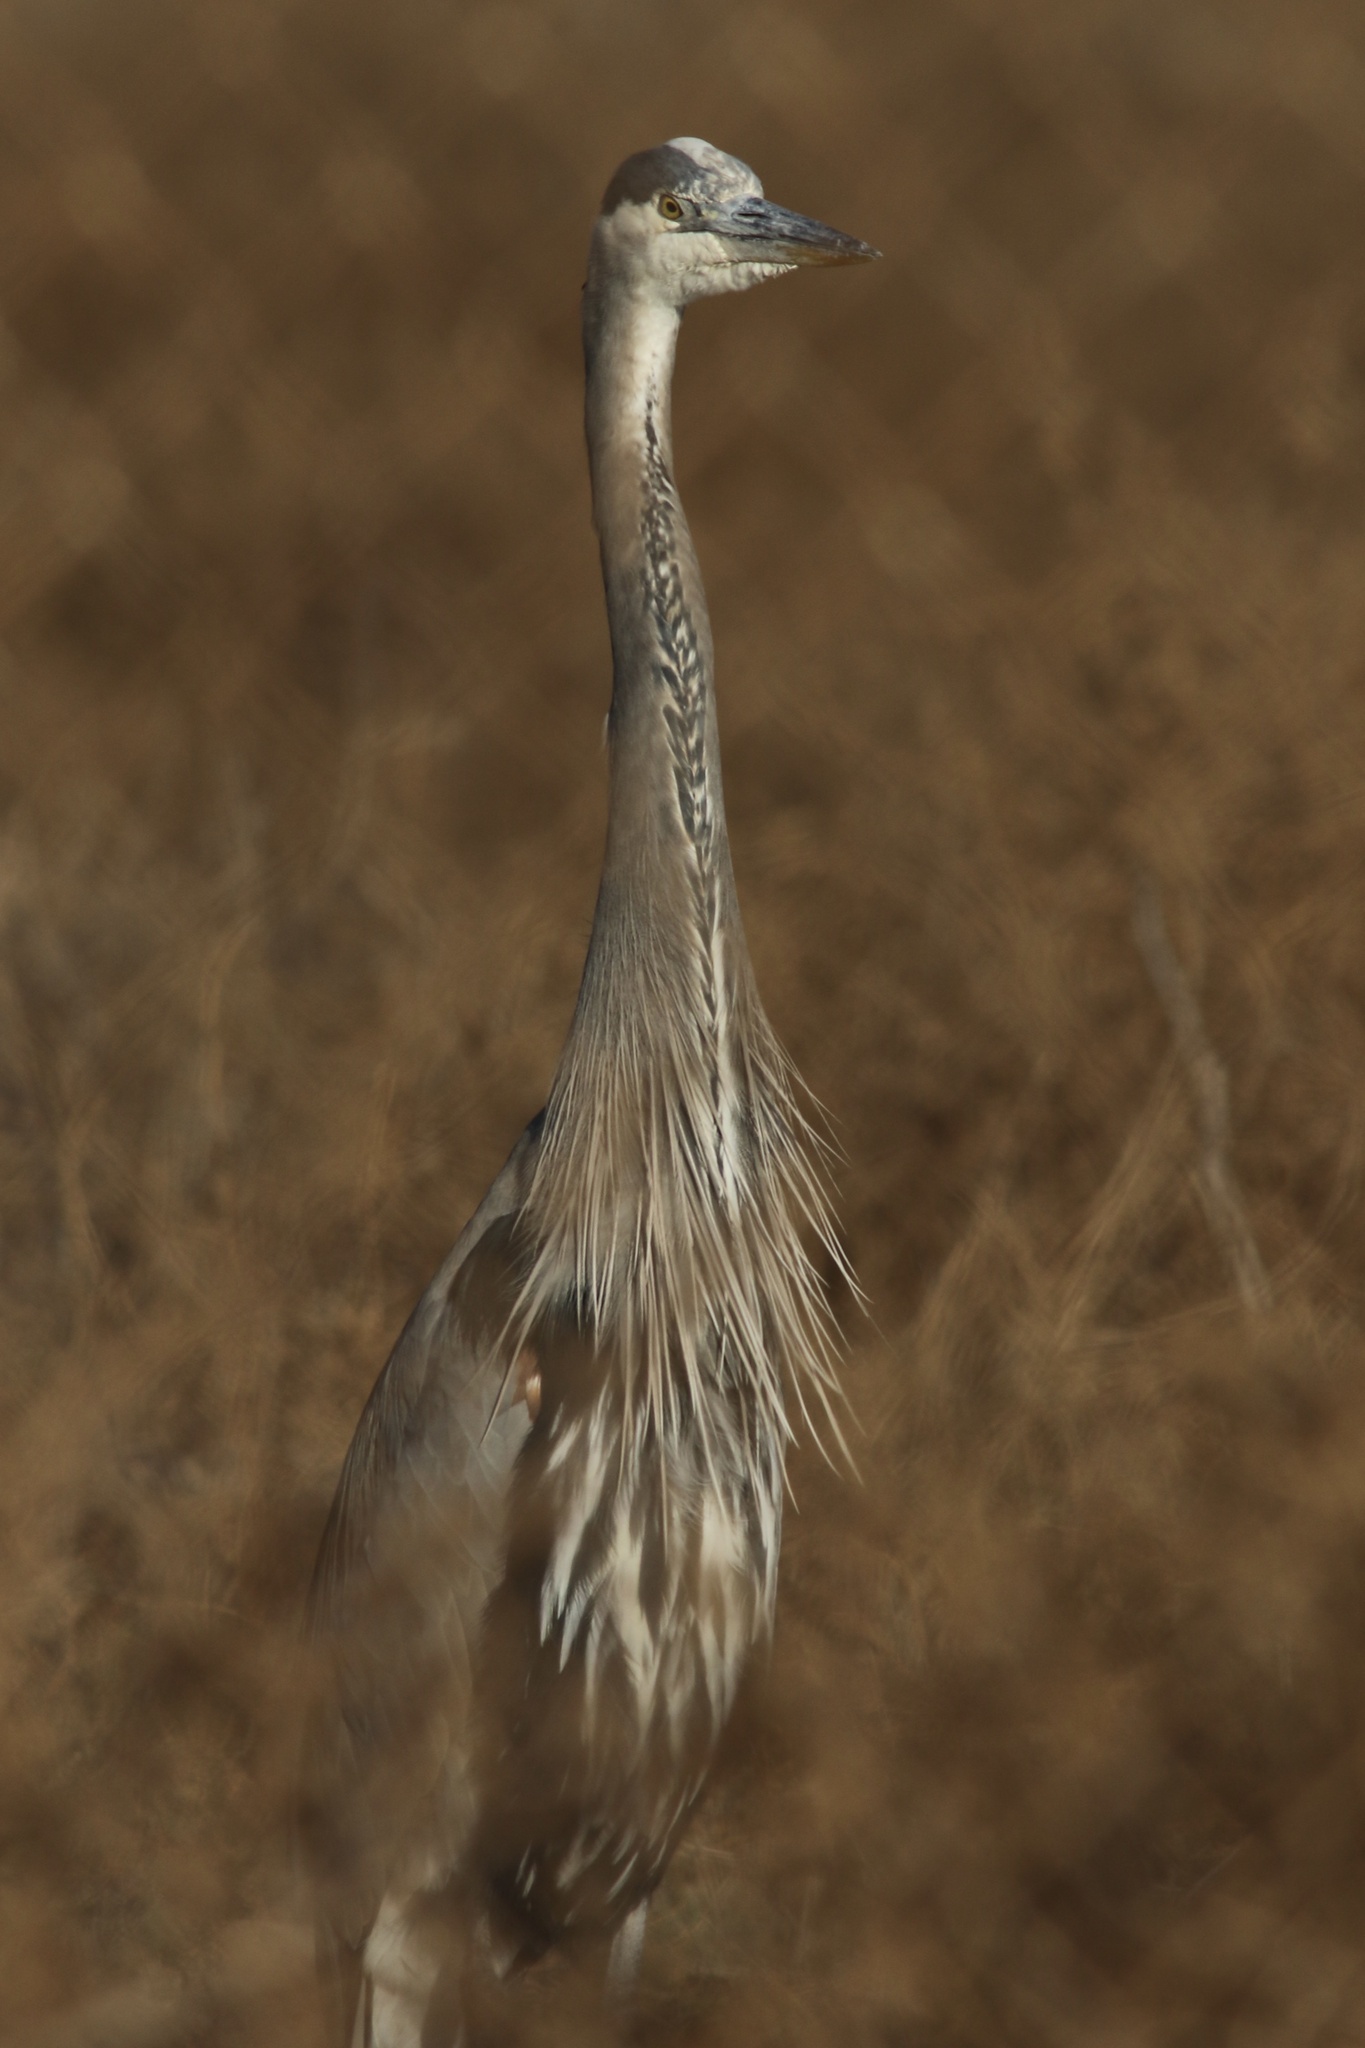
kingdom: Animalia
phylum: Chordata
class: Aves
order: Pelecaniformes
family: Ardeidae
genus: Ardea
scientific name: Ardea herodias
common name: Great blue heron
